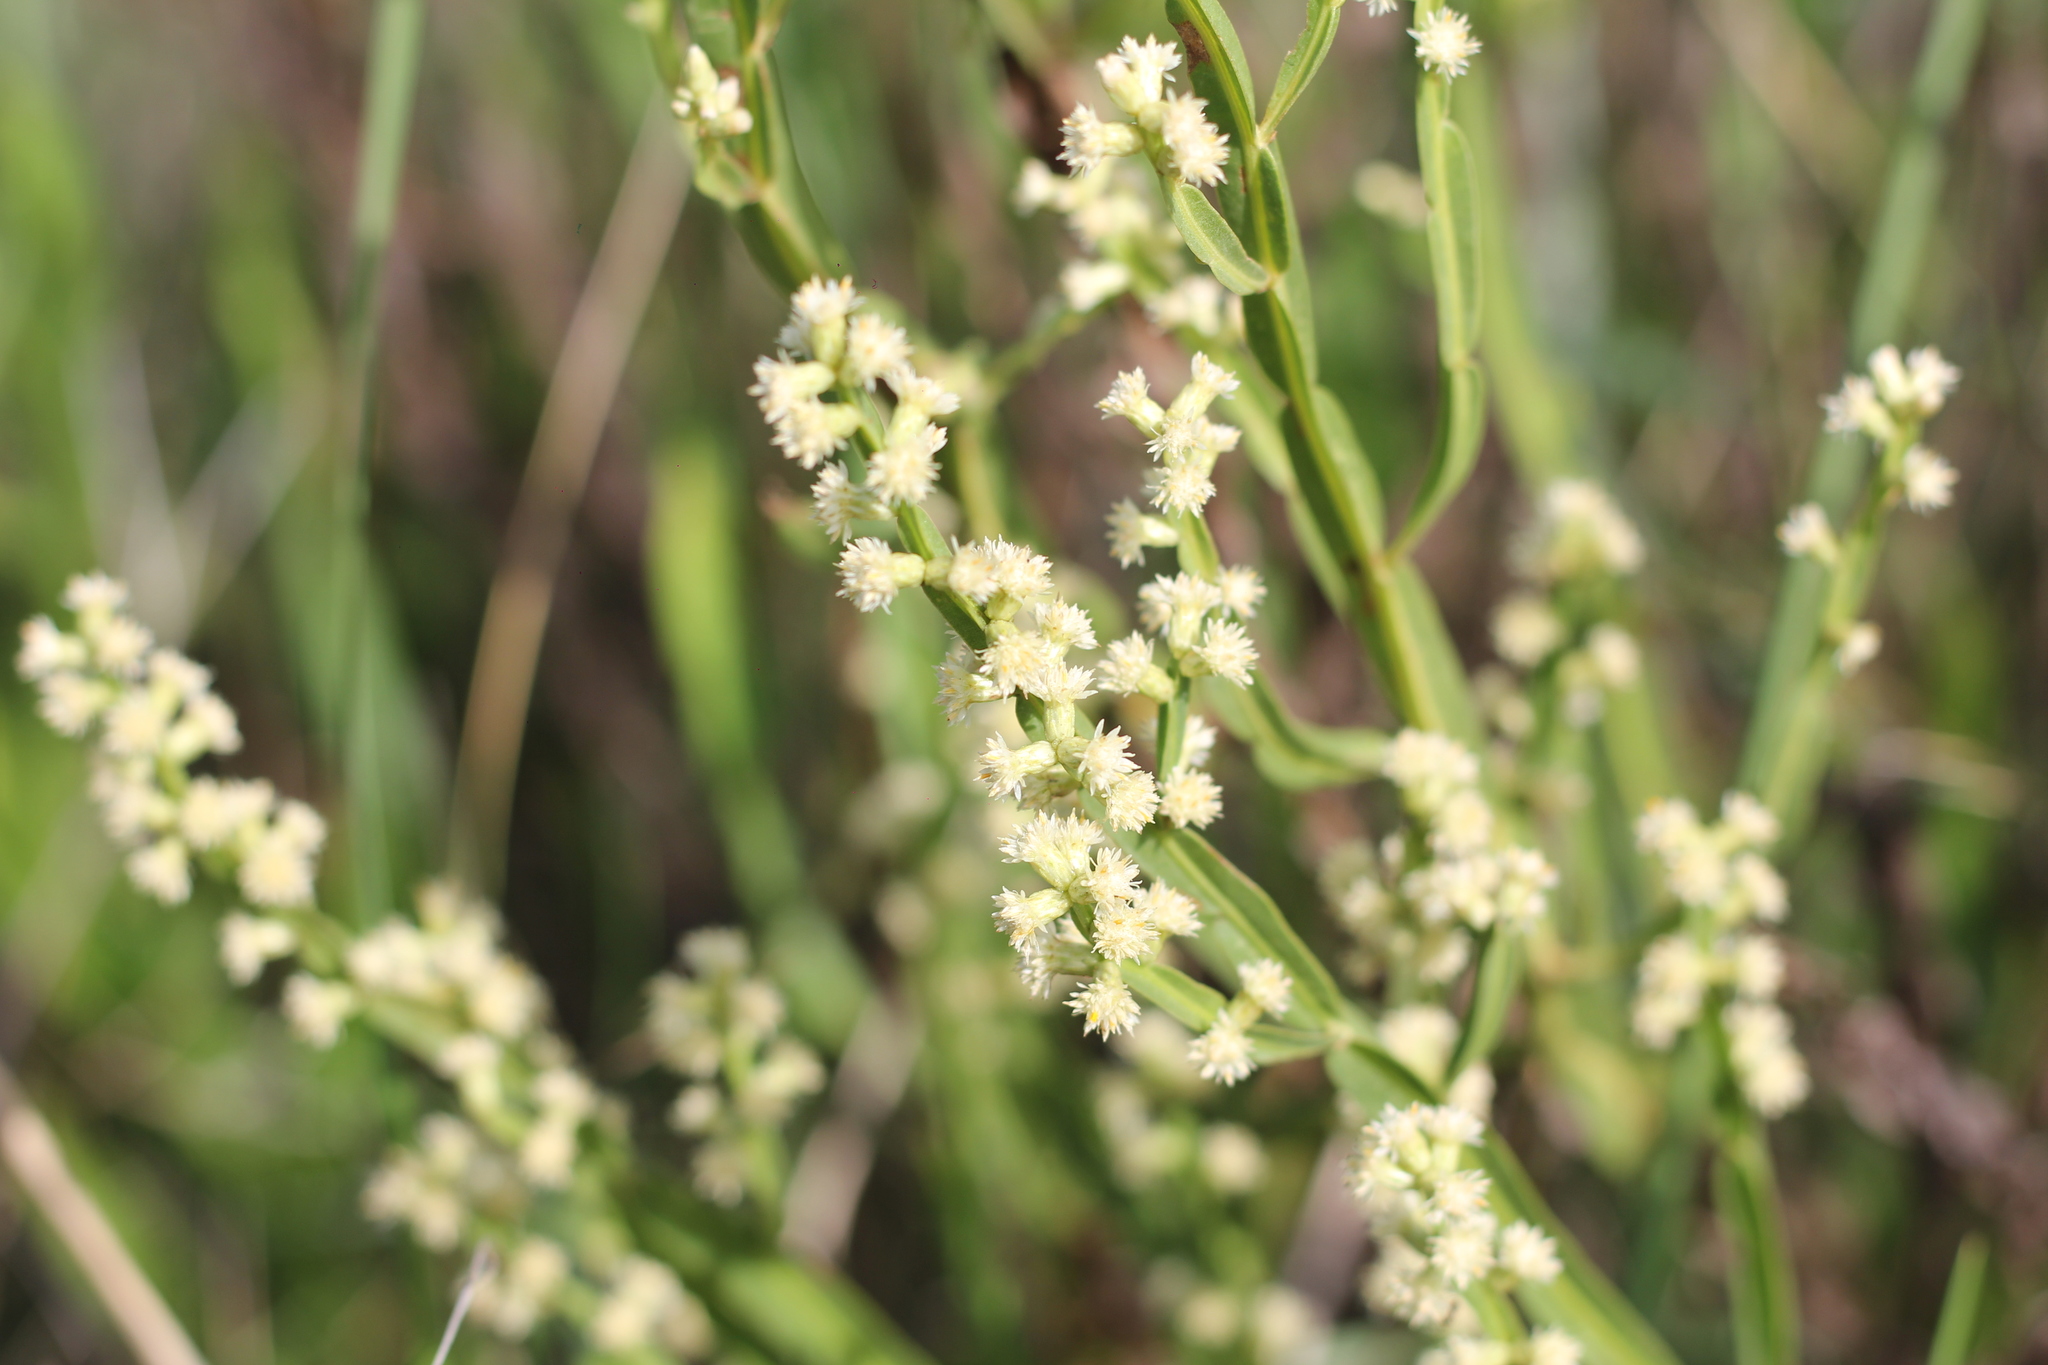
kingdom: Plantae
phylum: Tracheophyta
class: Magnoliopsida
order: Asterales
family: Asteraceae
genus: Baccharis
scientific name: Baccharis trimera
